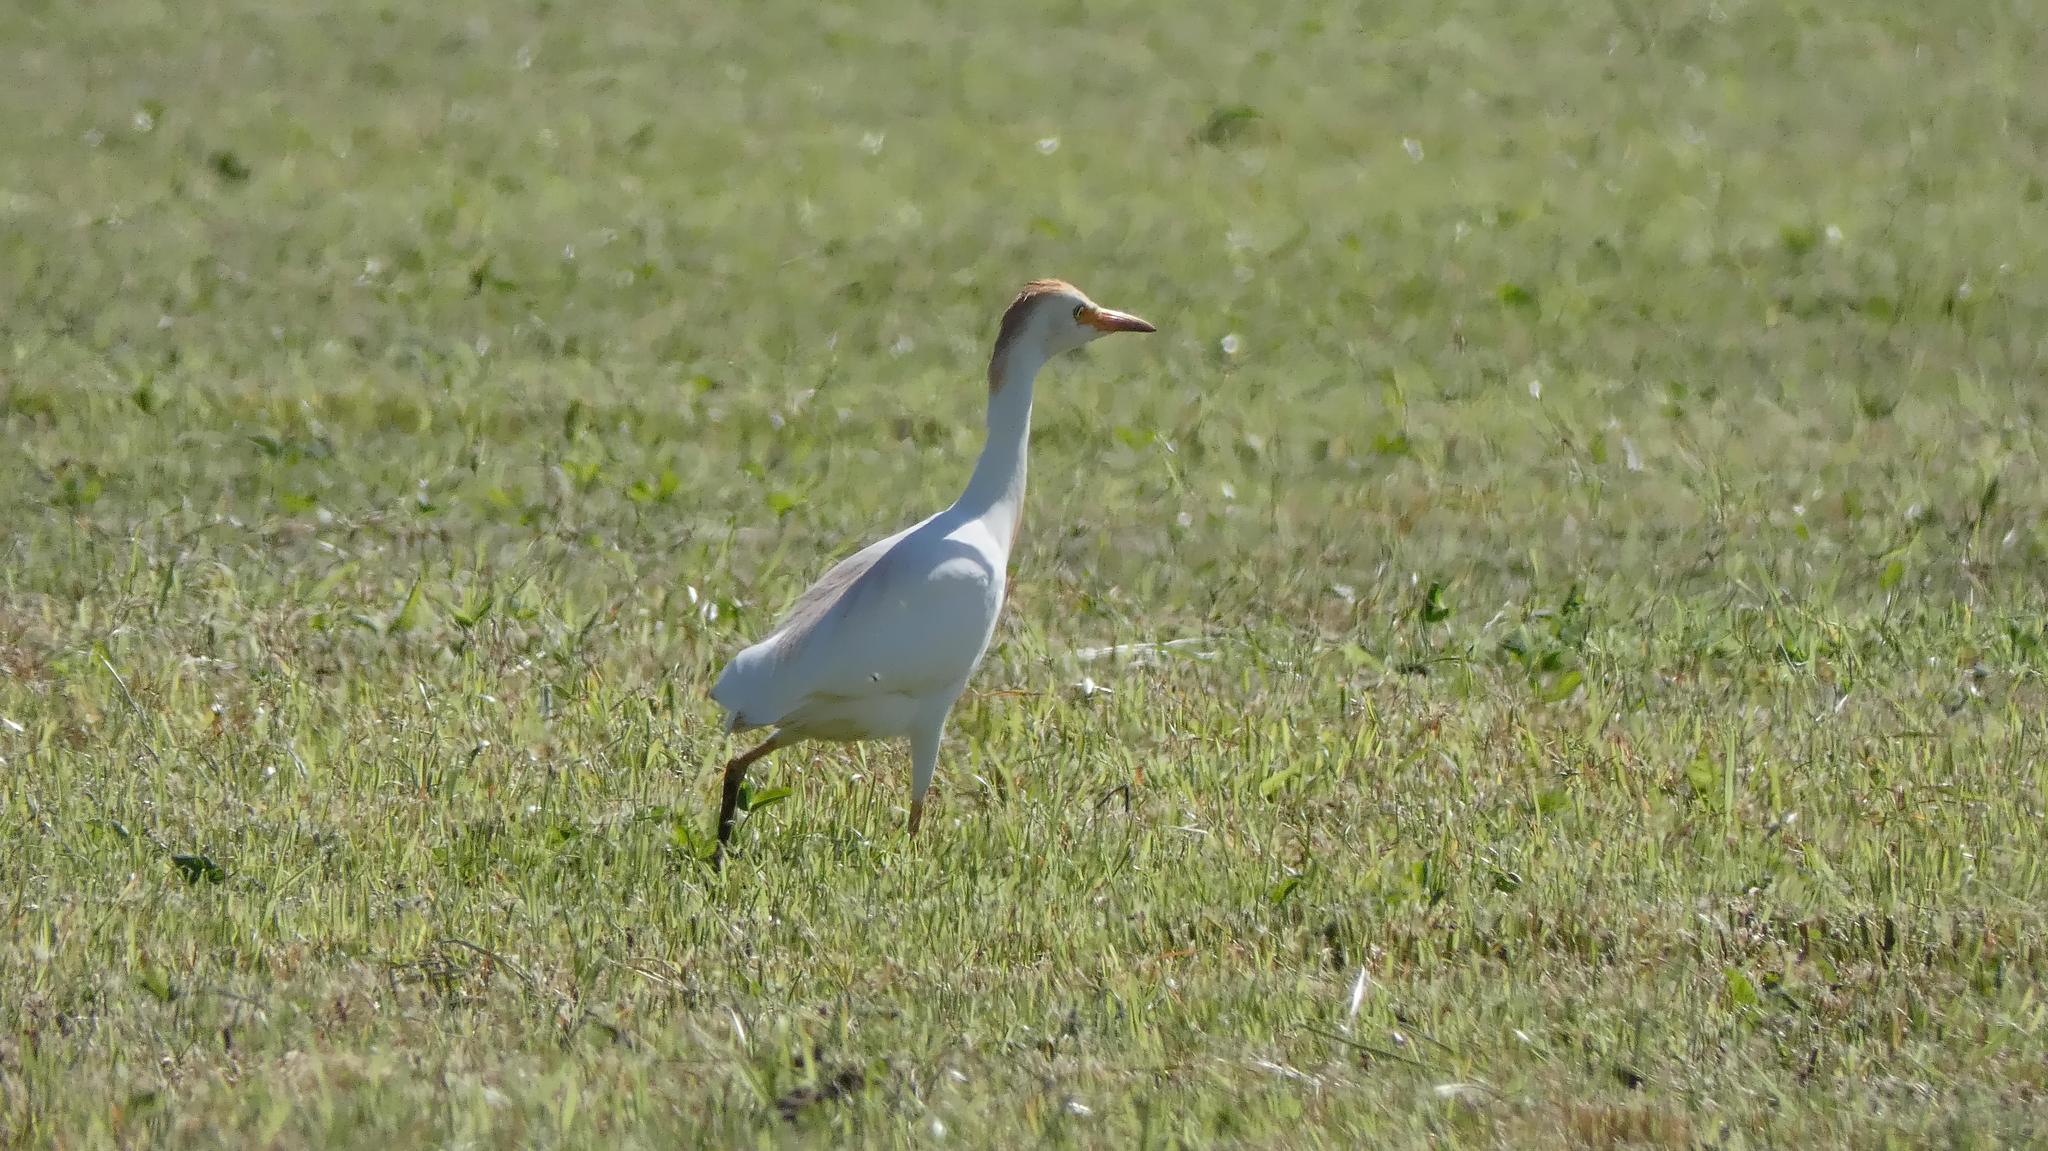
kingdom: Animalia
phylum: Chordata
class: Aves
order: Pelecaniformes
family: Ardeidae
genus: Bubulcus
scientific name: Bubulcus ibis
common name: Cattle egret
